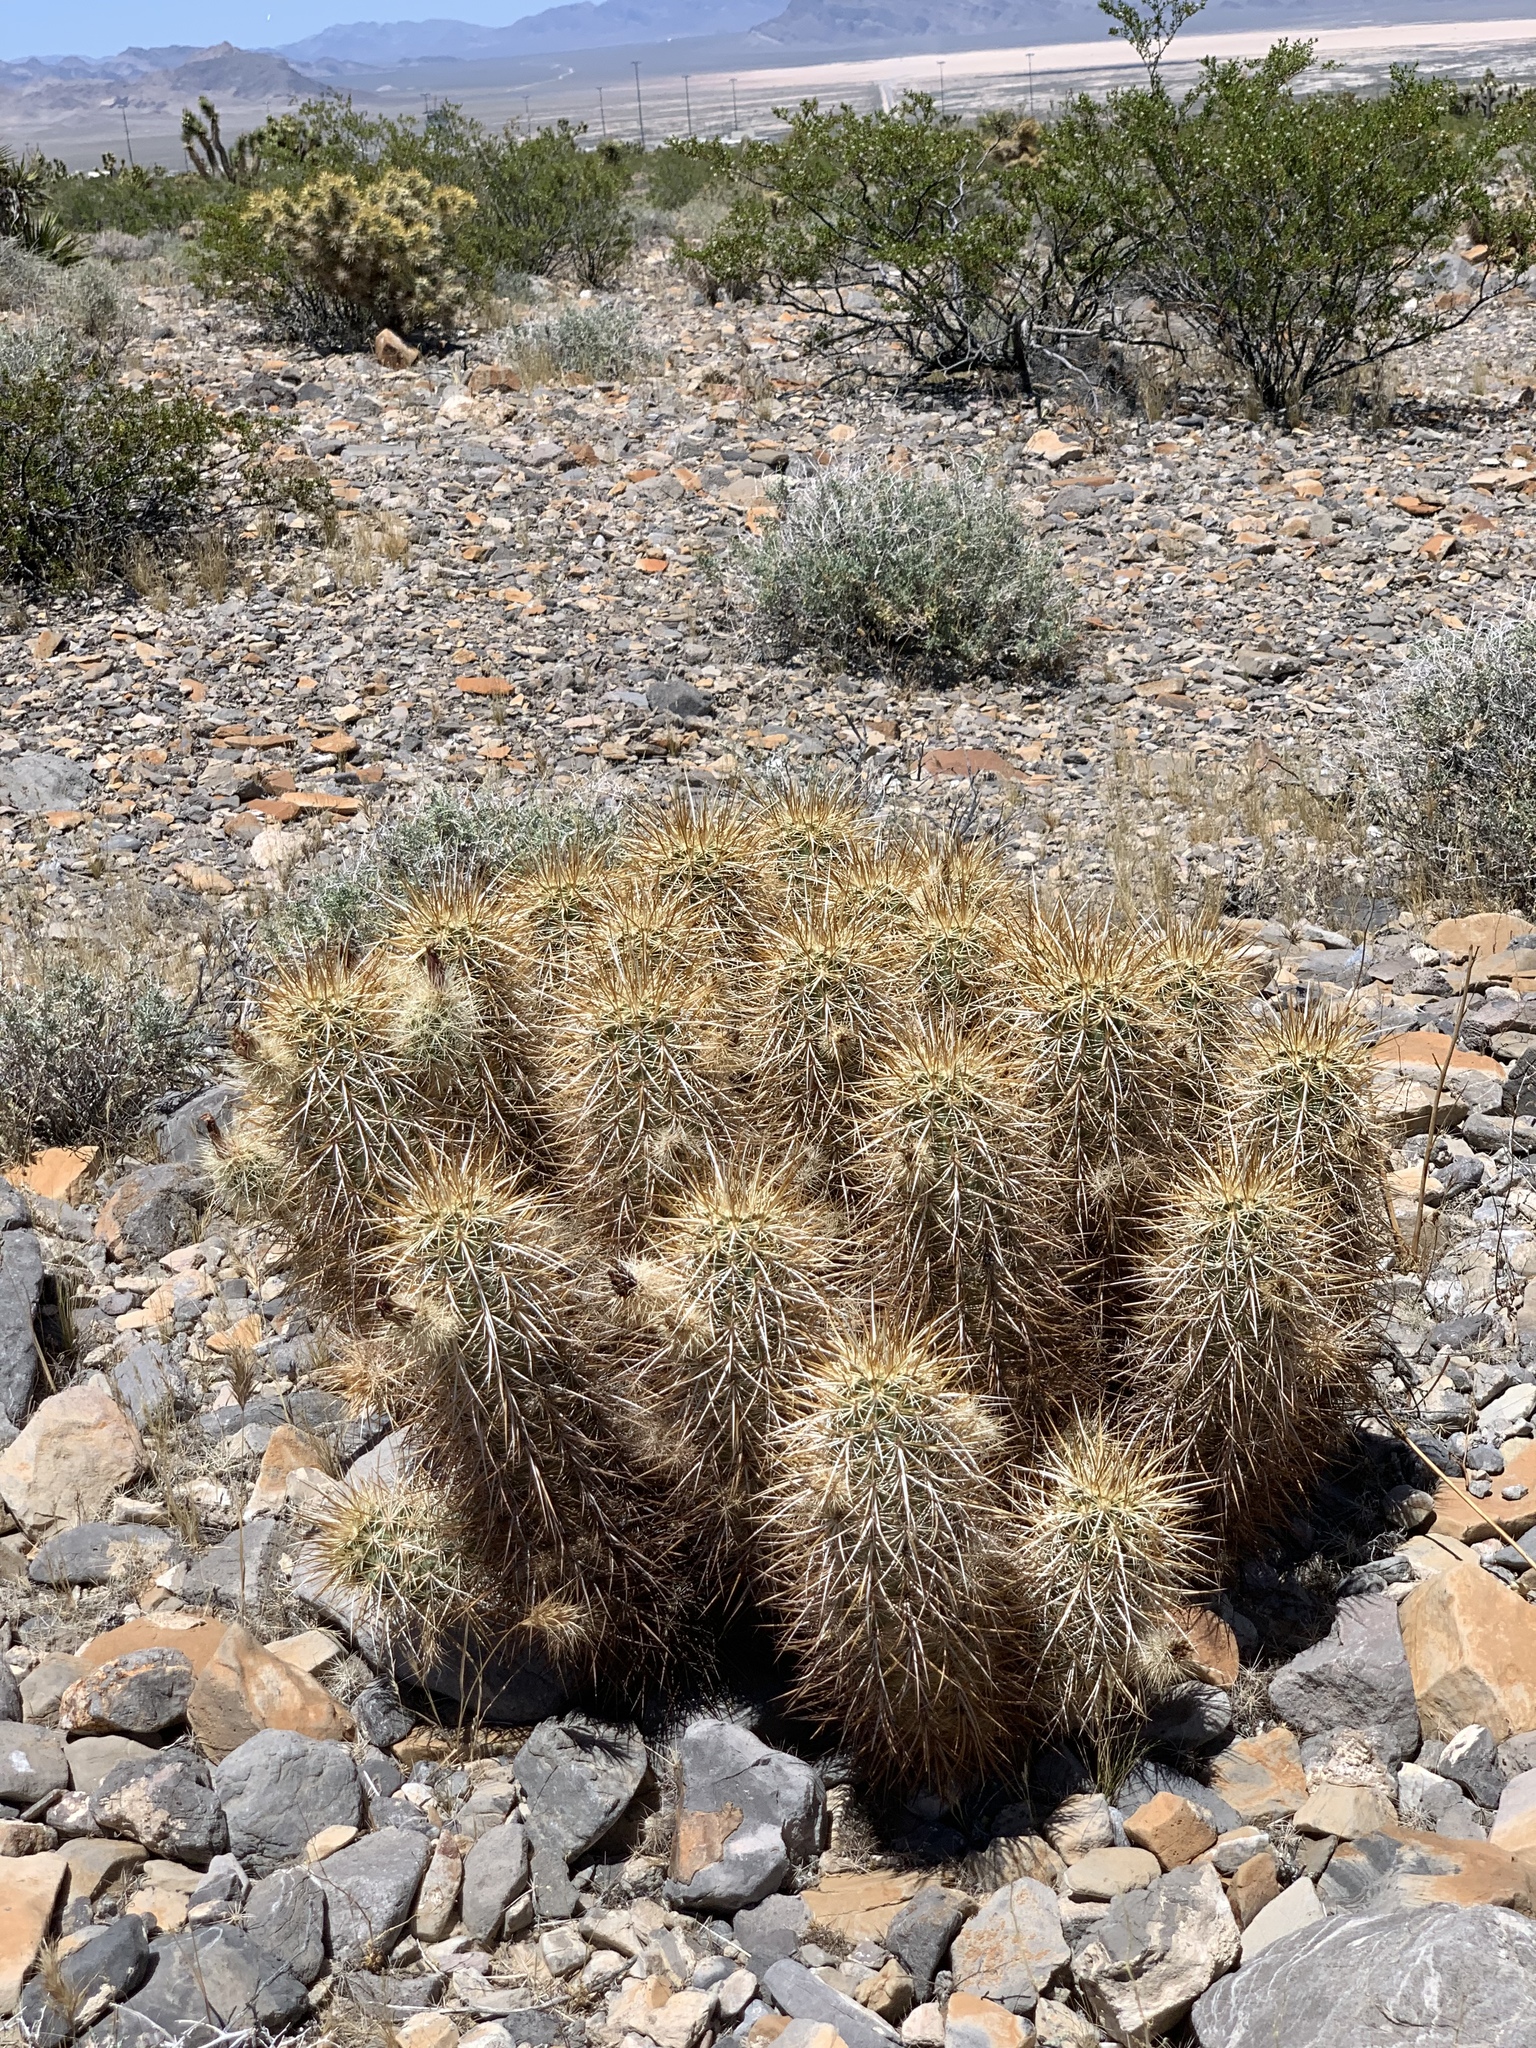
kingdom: Plantae
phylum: Tracheophyta
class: Magnoliopsida
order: Caryophyllales
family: Cactaceae
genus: Echinocereus
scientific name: Echinocereus engelmannii
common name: Engelmann's hedgehog cactus
